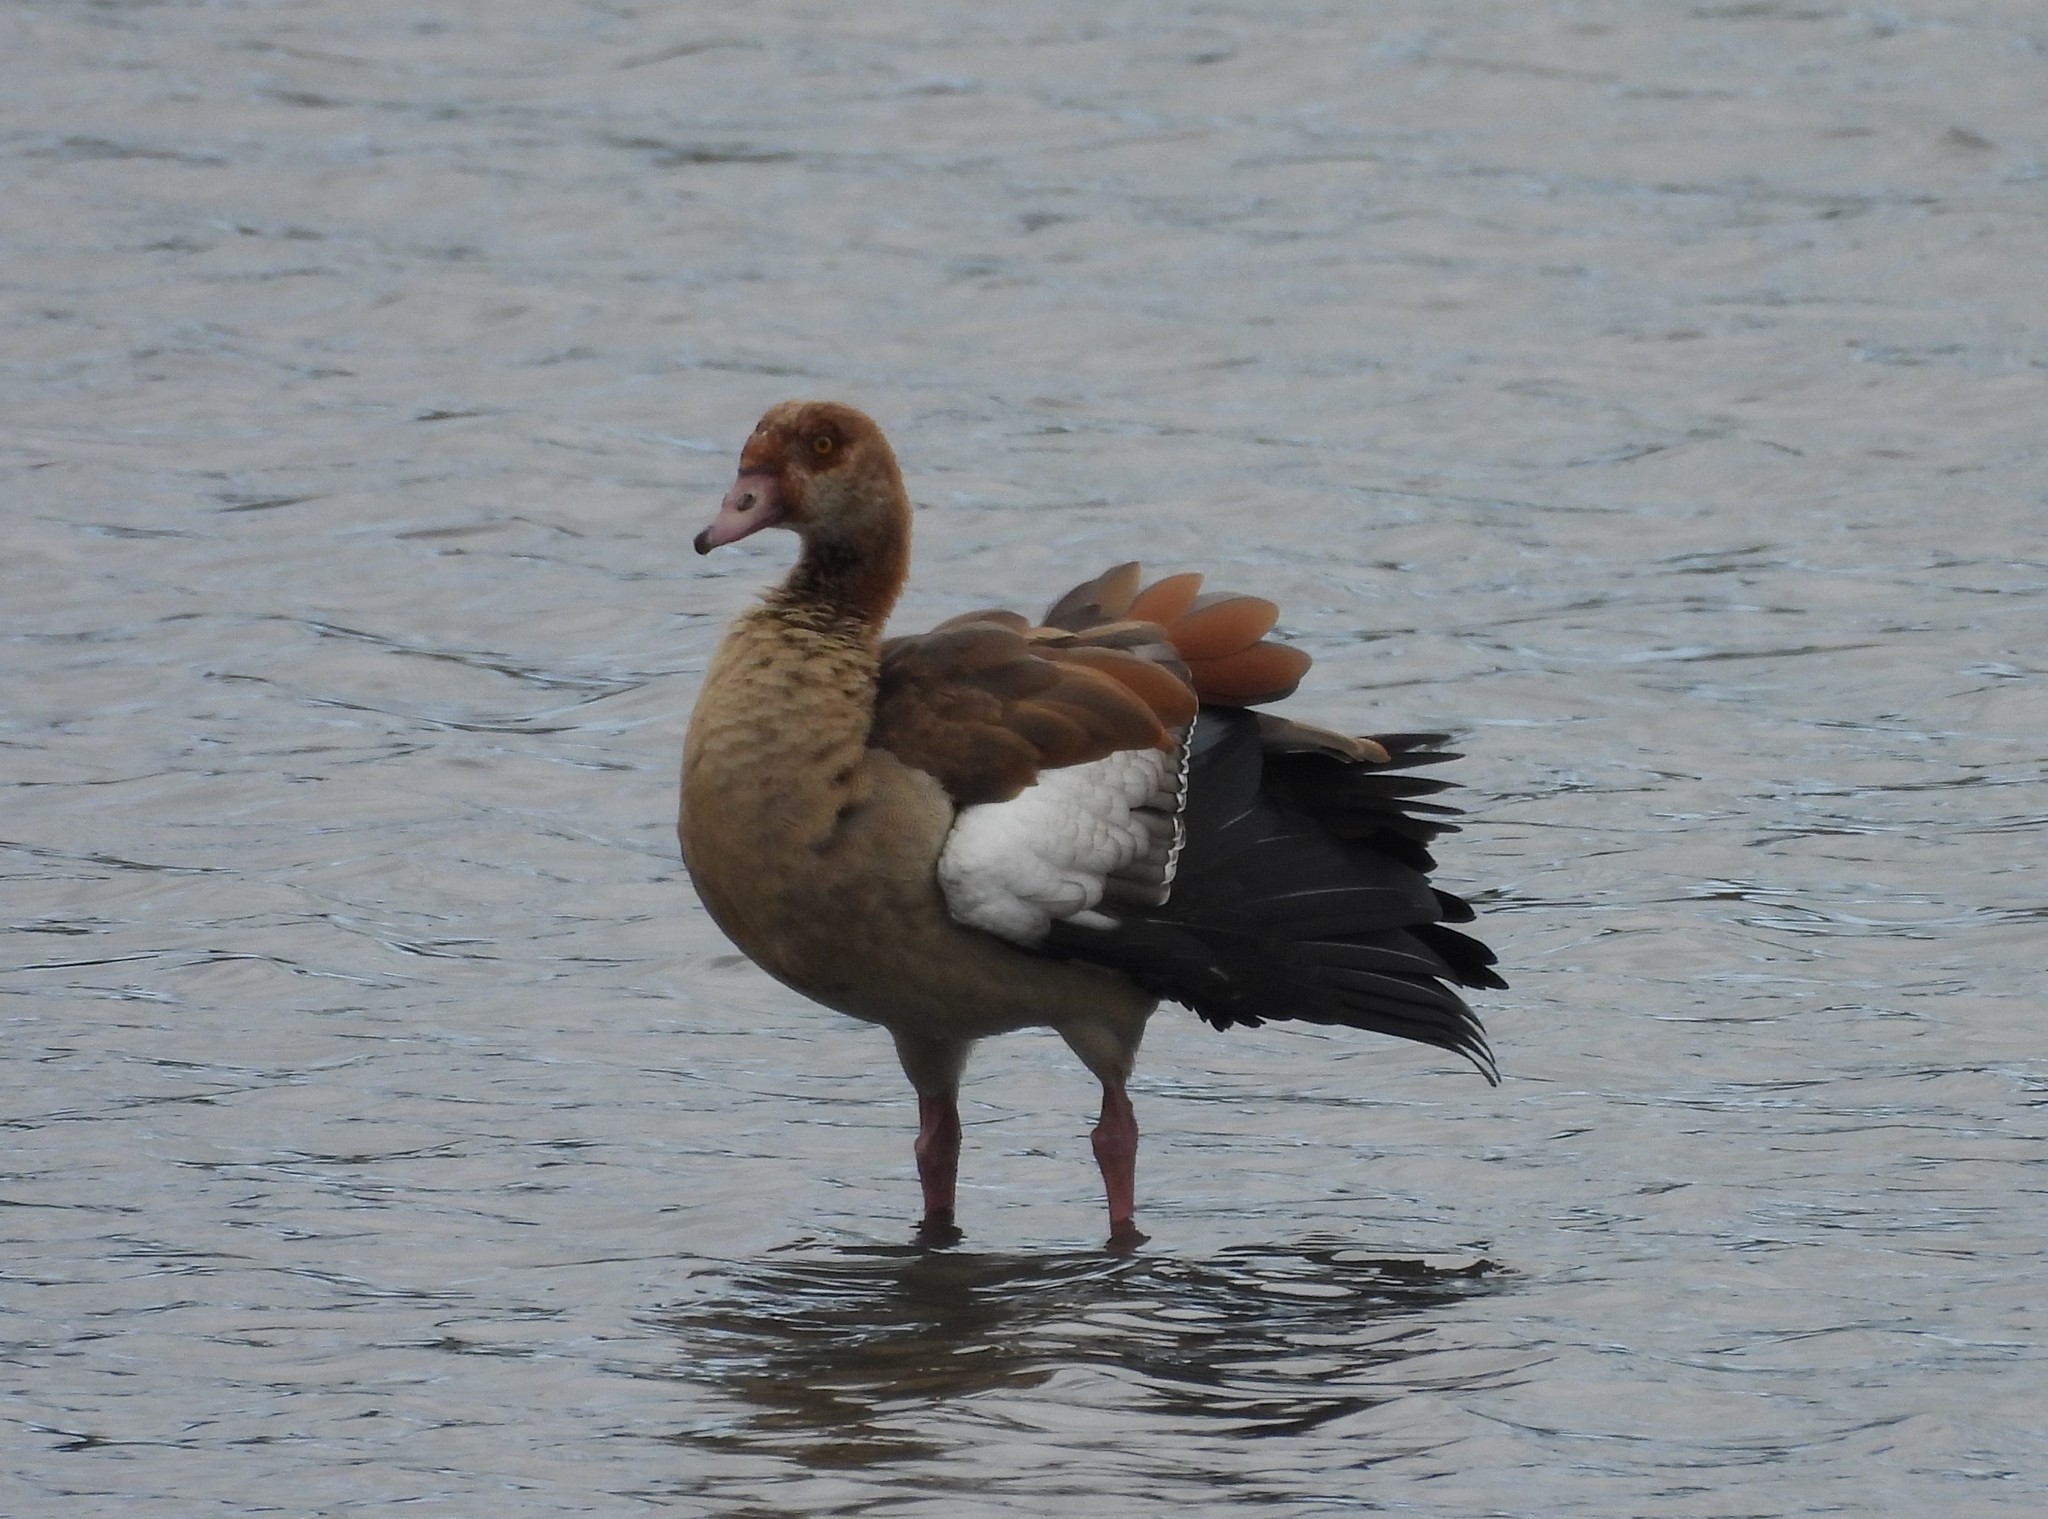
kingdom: Animalia
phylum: Chordata
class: Aves
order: Anseriformes
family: Anatidae
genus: Alopochen
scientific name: Alopochen aegyptiaca
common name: Egyptian goose
